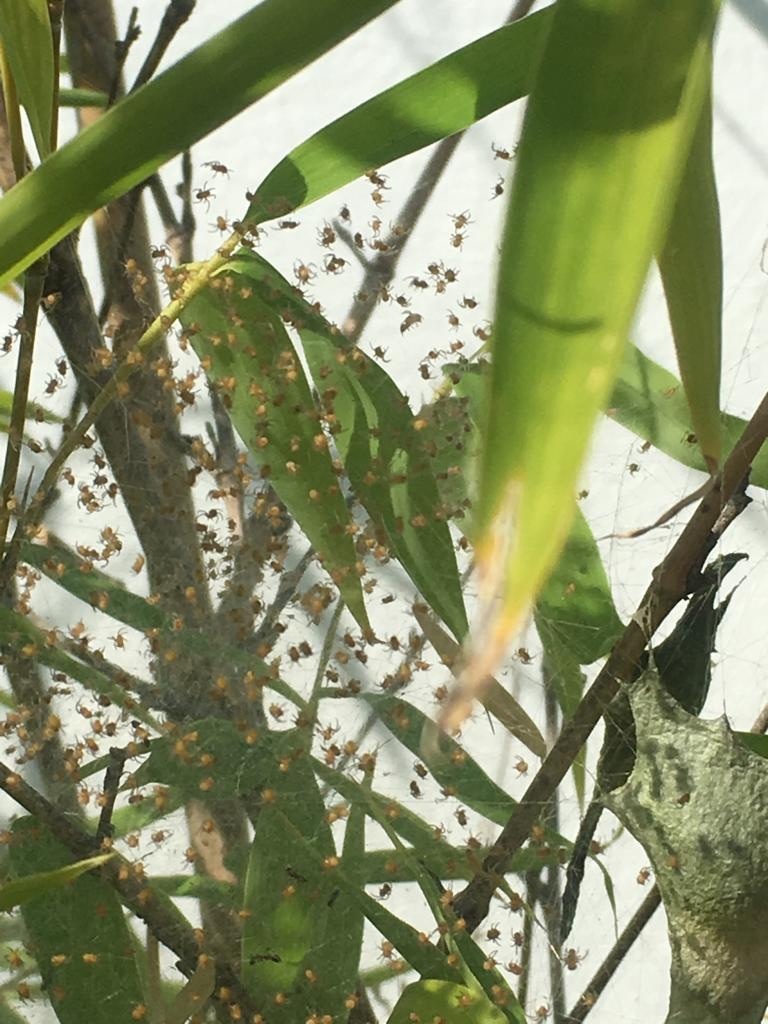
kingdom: Animalia
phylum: Arthropoda
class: Arachnida
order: Araneae
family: Araneidae
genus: Argiope
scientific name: Argiope argentata
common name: Orb weavers
